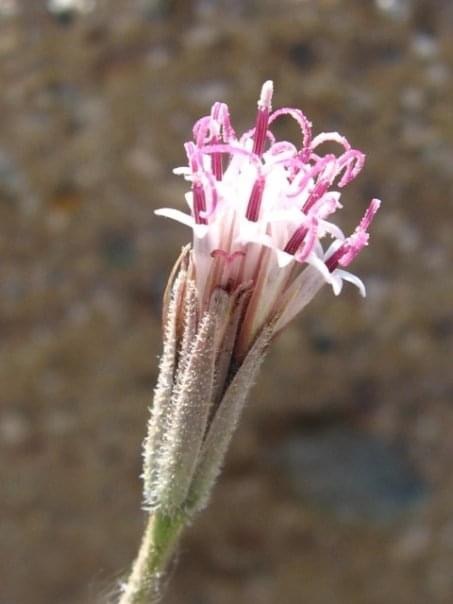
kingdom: Plantae
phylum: Tracheophyta
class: Magnoliopsida
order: Asterales
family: Asteraceae
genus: Palafoxia
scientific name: Palafoxia arida
